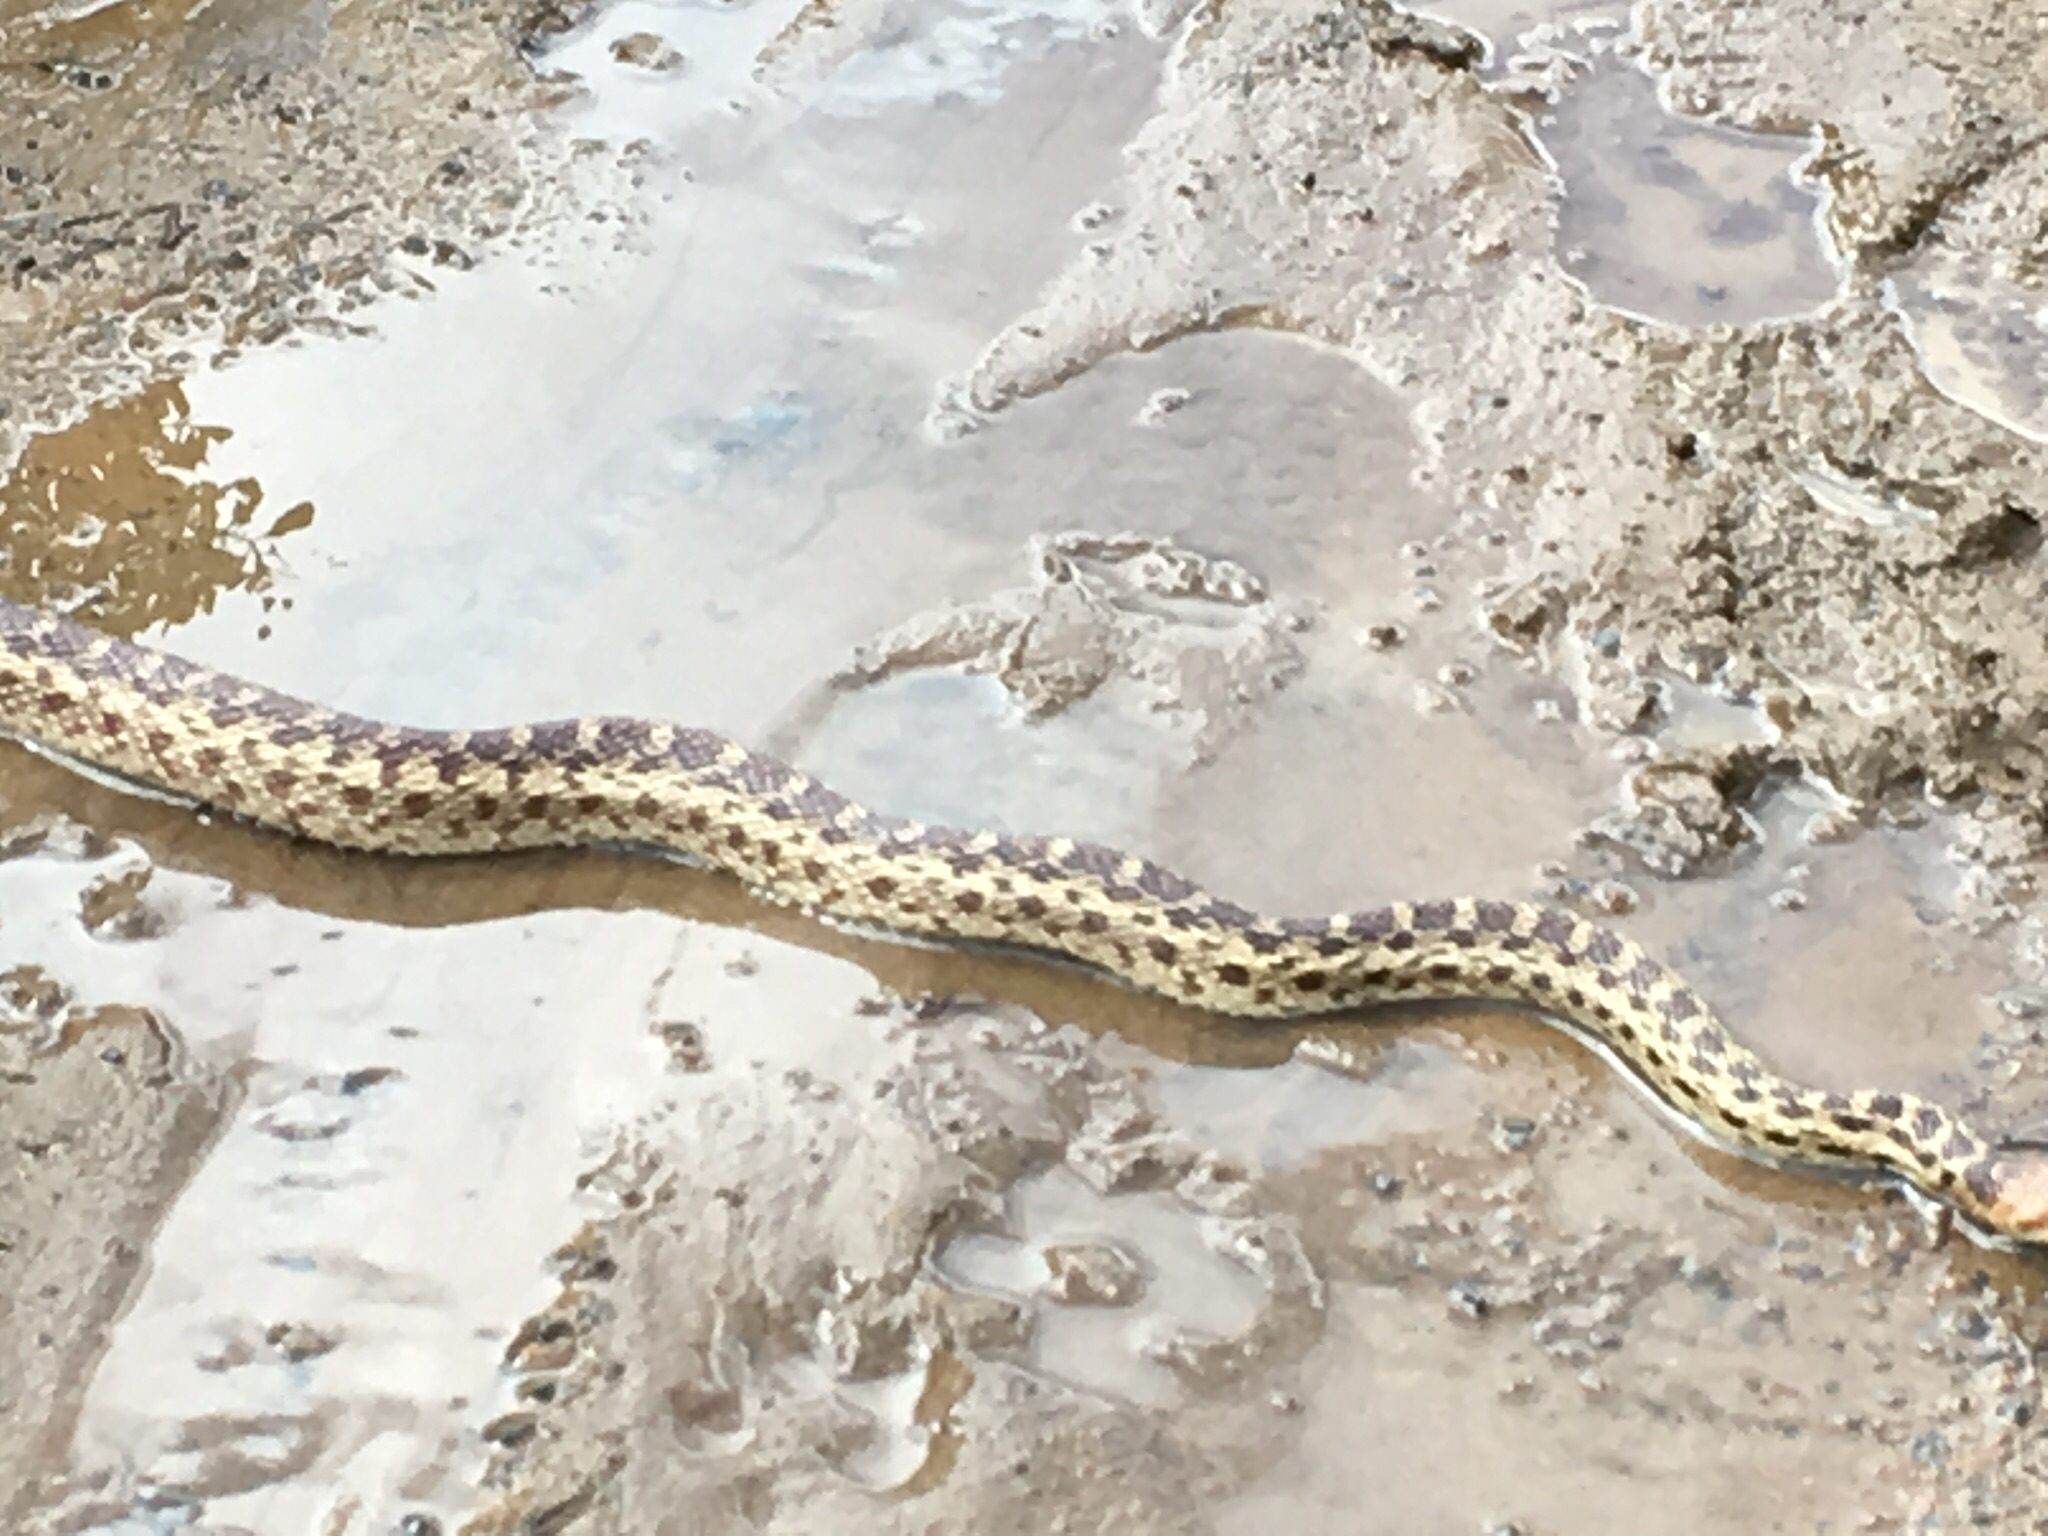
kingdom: Animalia
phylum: Chordata
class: Squamata
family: Colubridae
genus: Pituophis
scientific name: Pituophis catenifer
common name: Gopher snake
